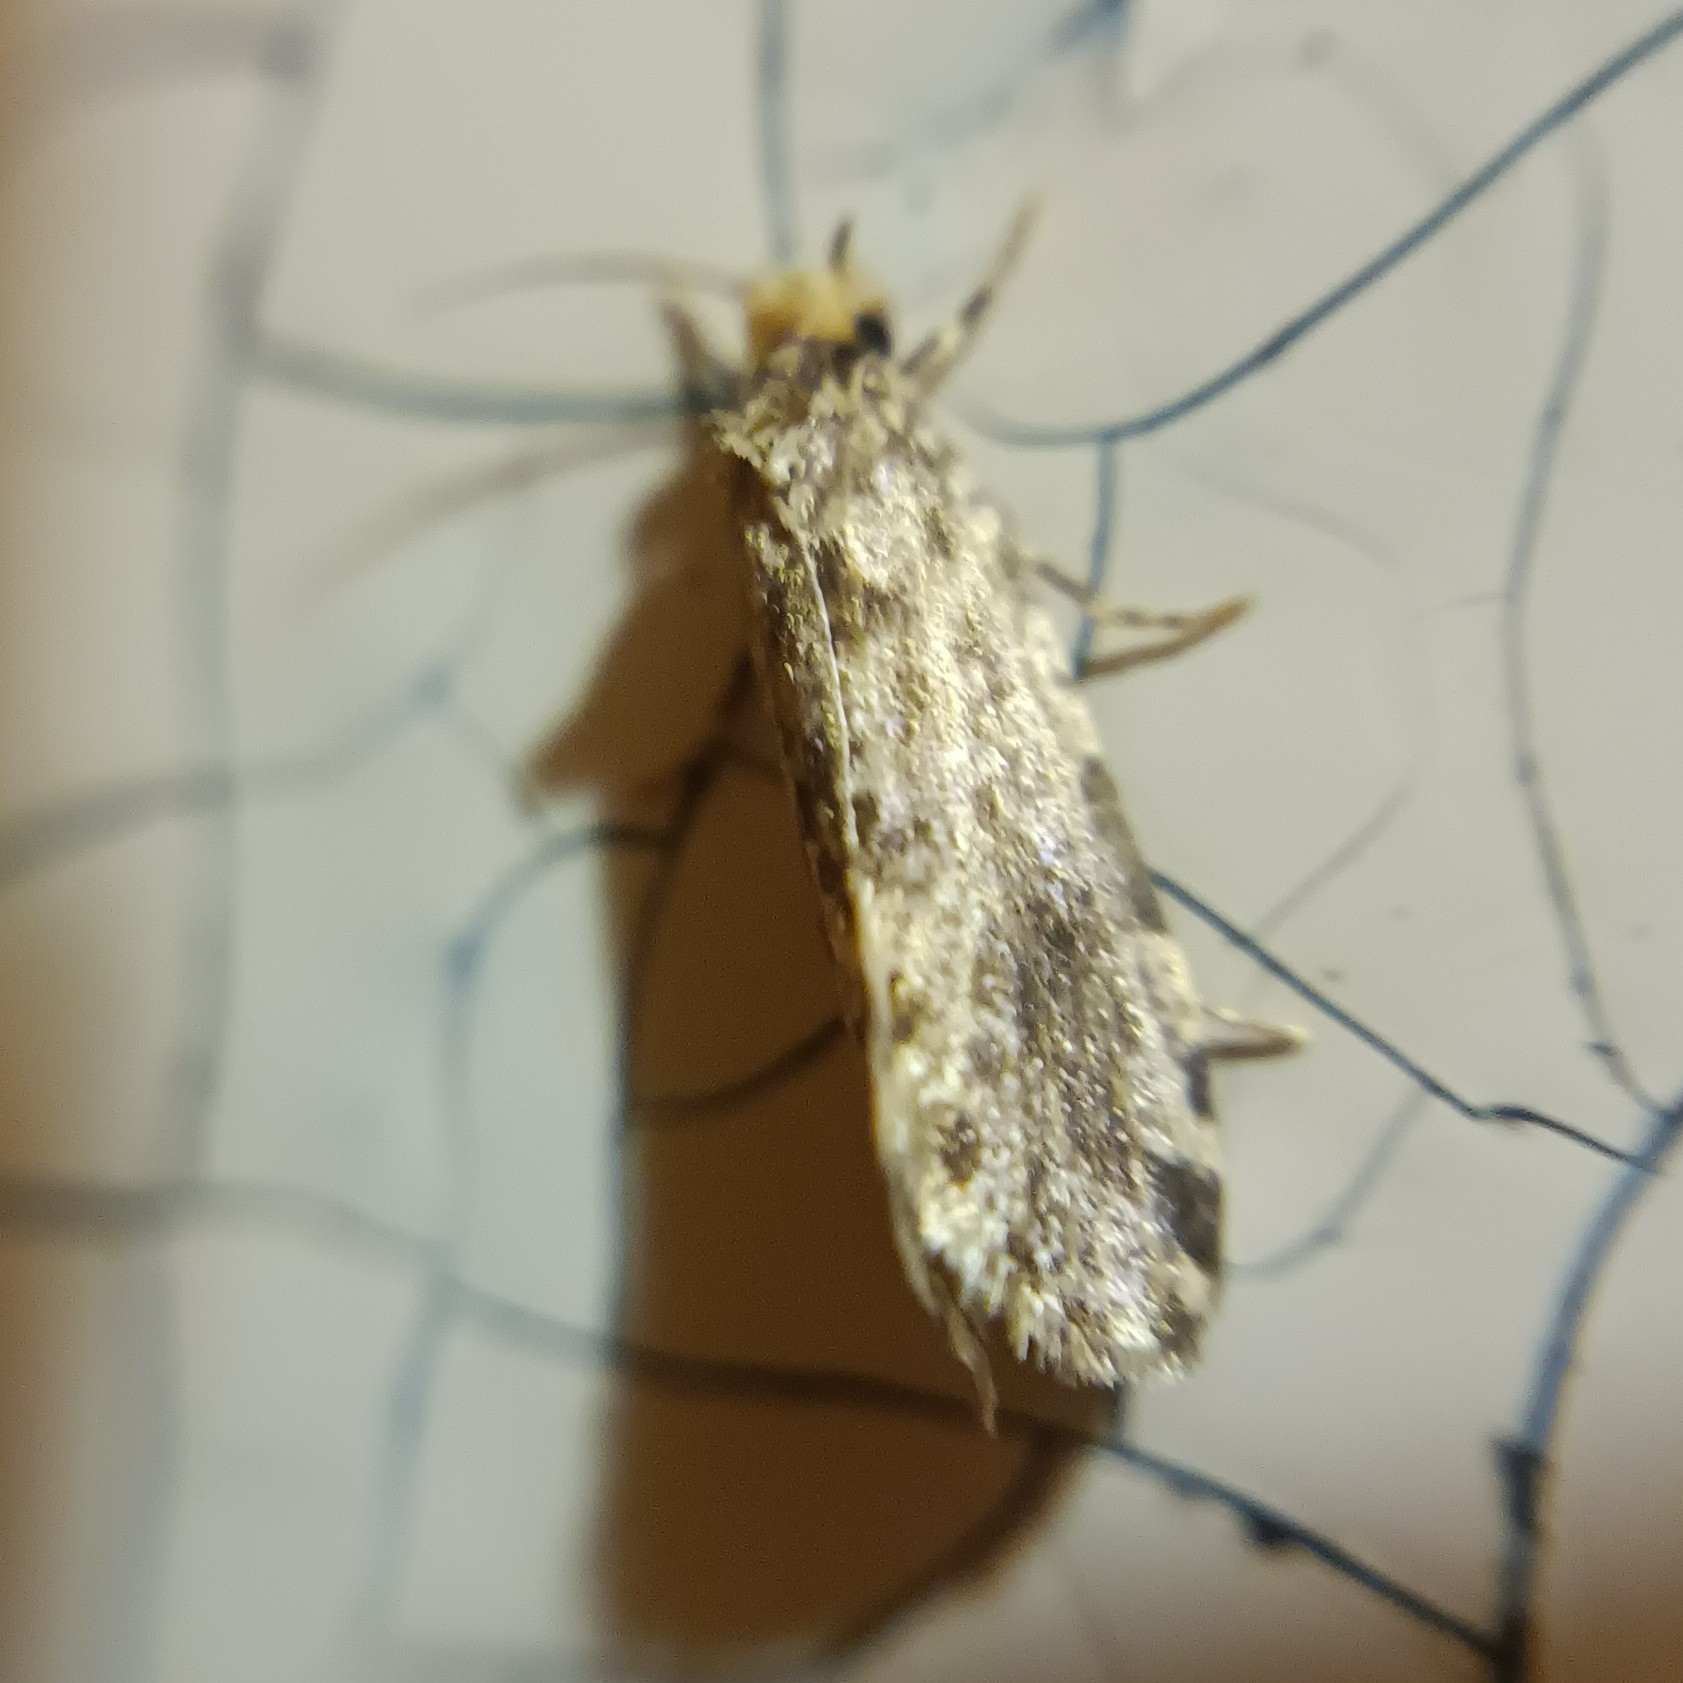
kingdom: Animalia
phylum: Arthropoda
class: Insecta
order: Lepidoptera
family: Tineidae
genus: Triaxomera
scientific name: Triaxomera parasitella
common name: Large brindled clothes
